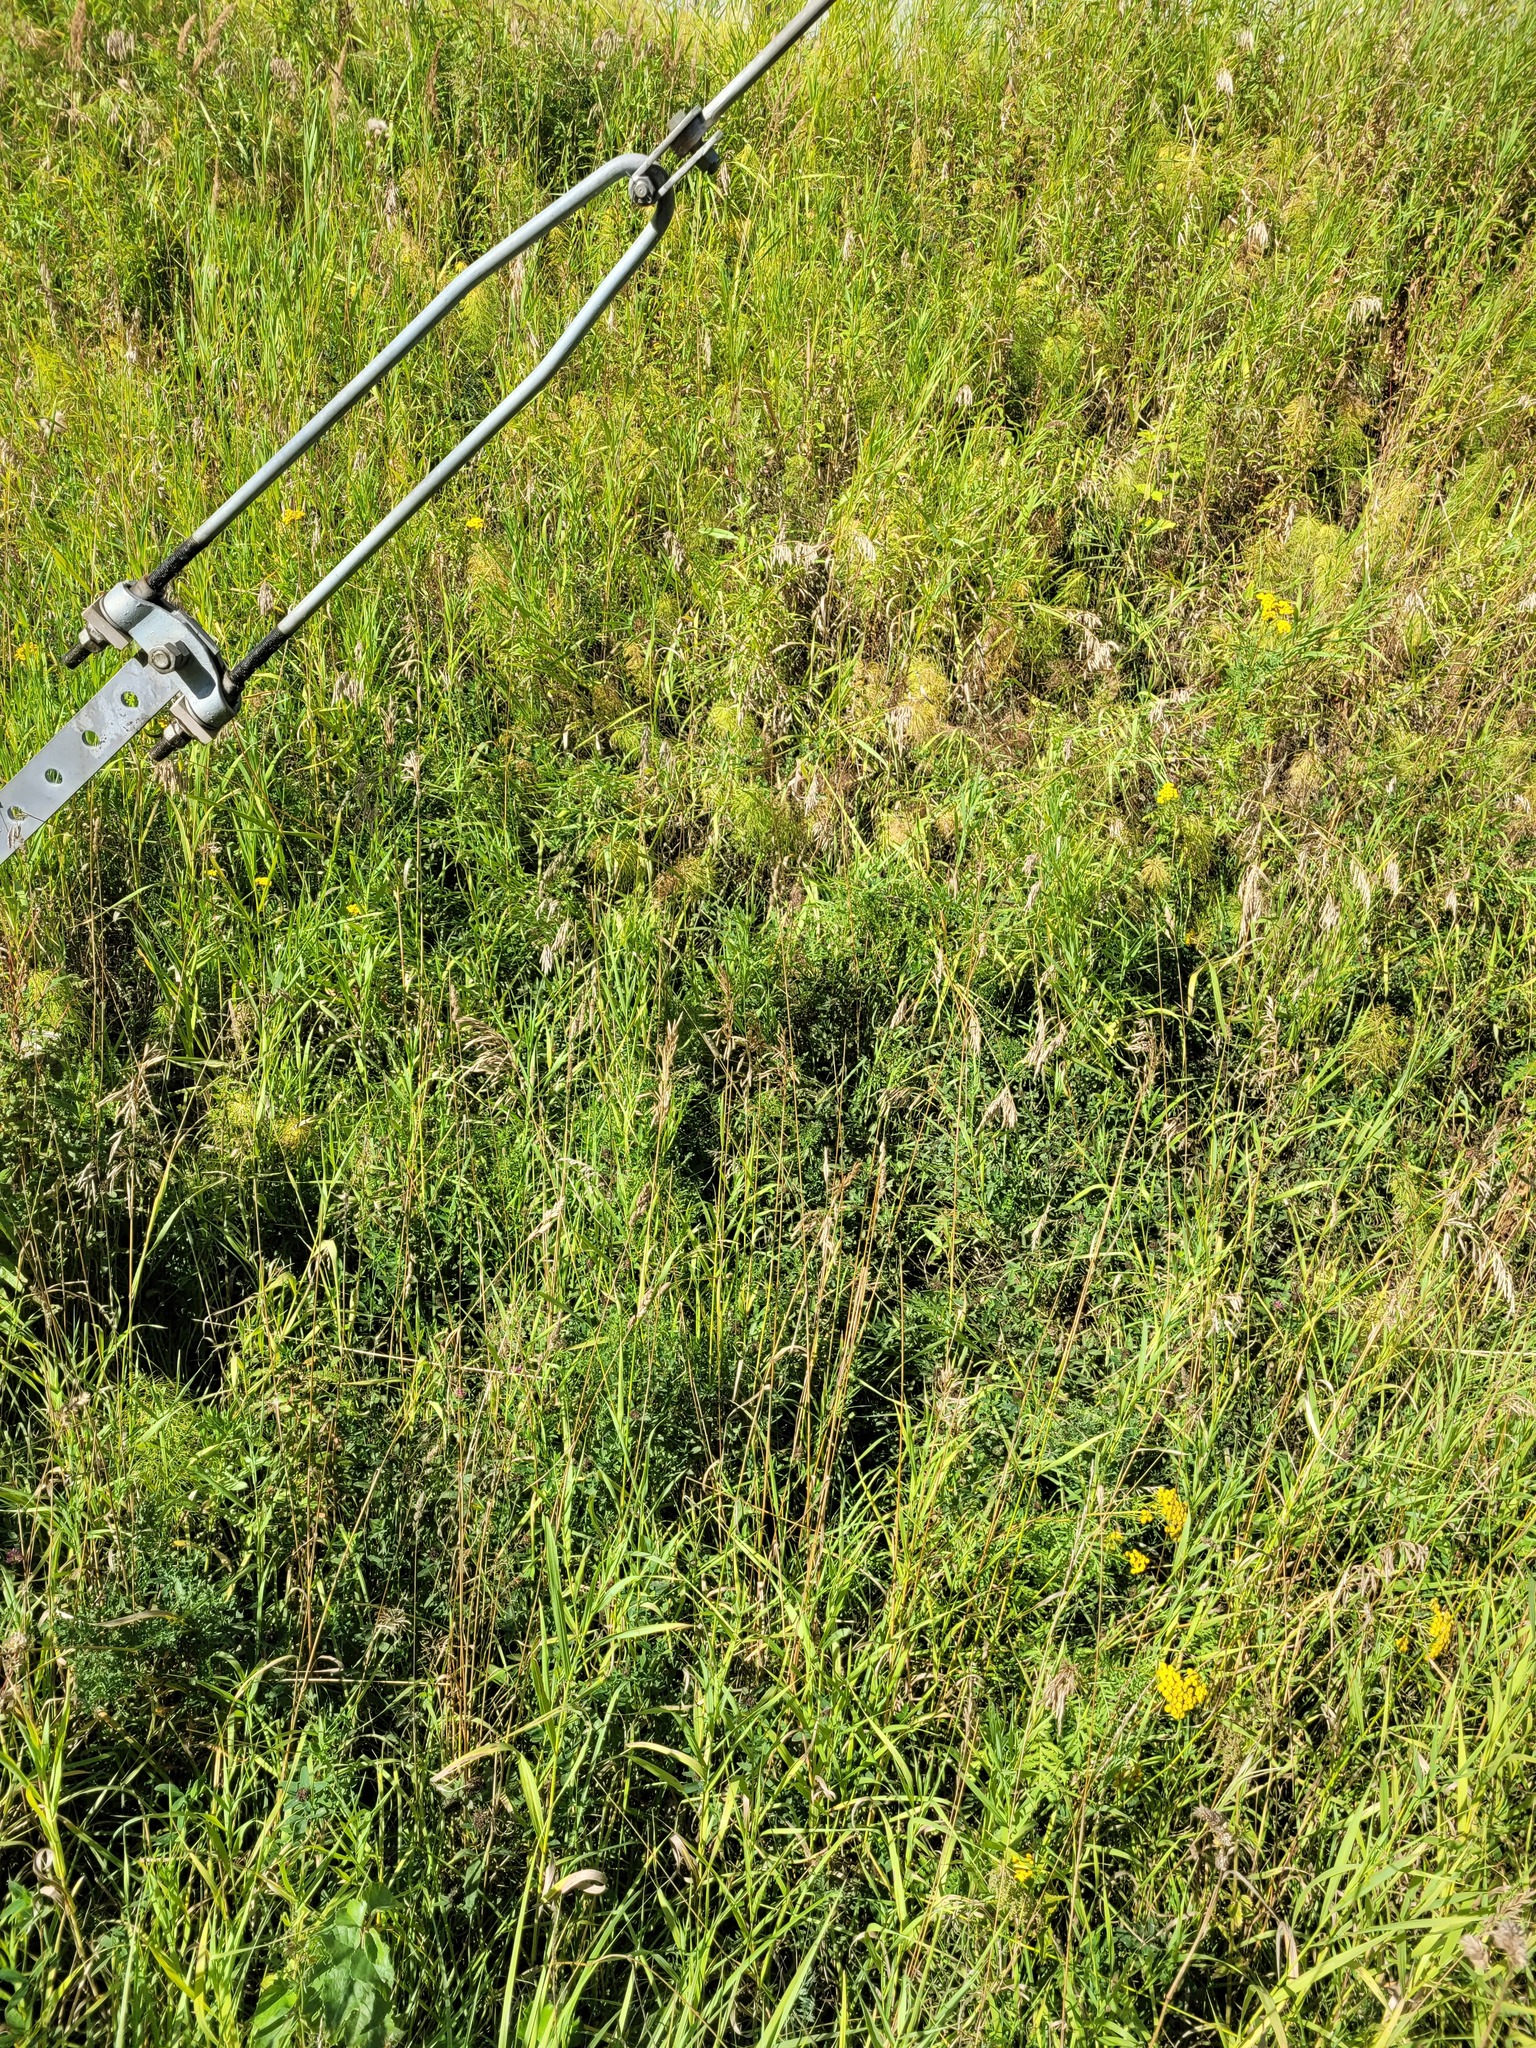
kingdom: Plantae
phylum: Tracheophyta
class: Liliopsida
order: Poales
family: Poaceae
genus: Bromus
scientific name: Bromus inermis
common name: Smooth brome
